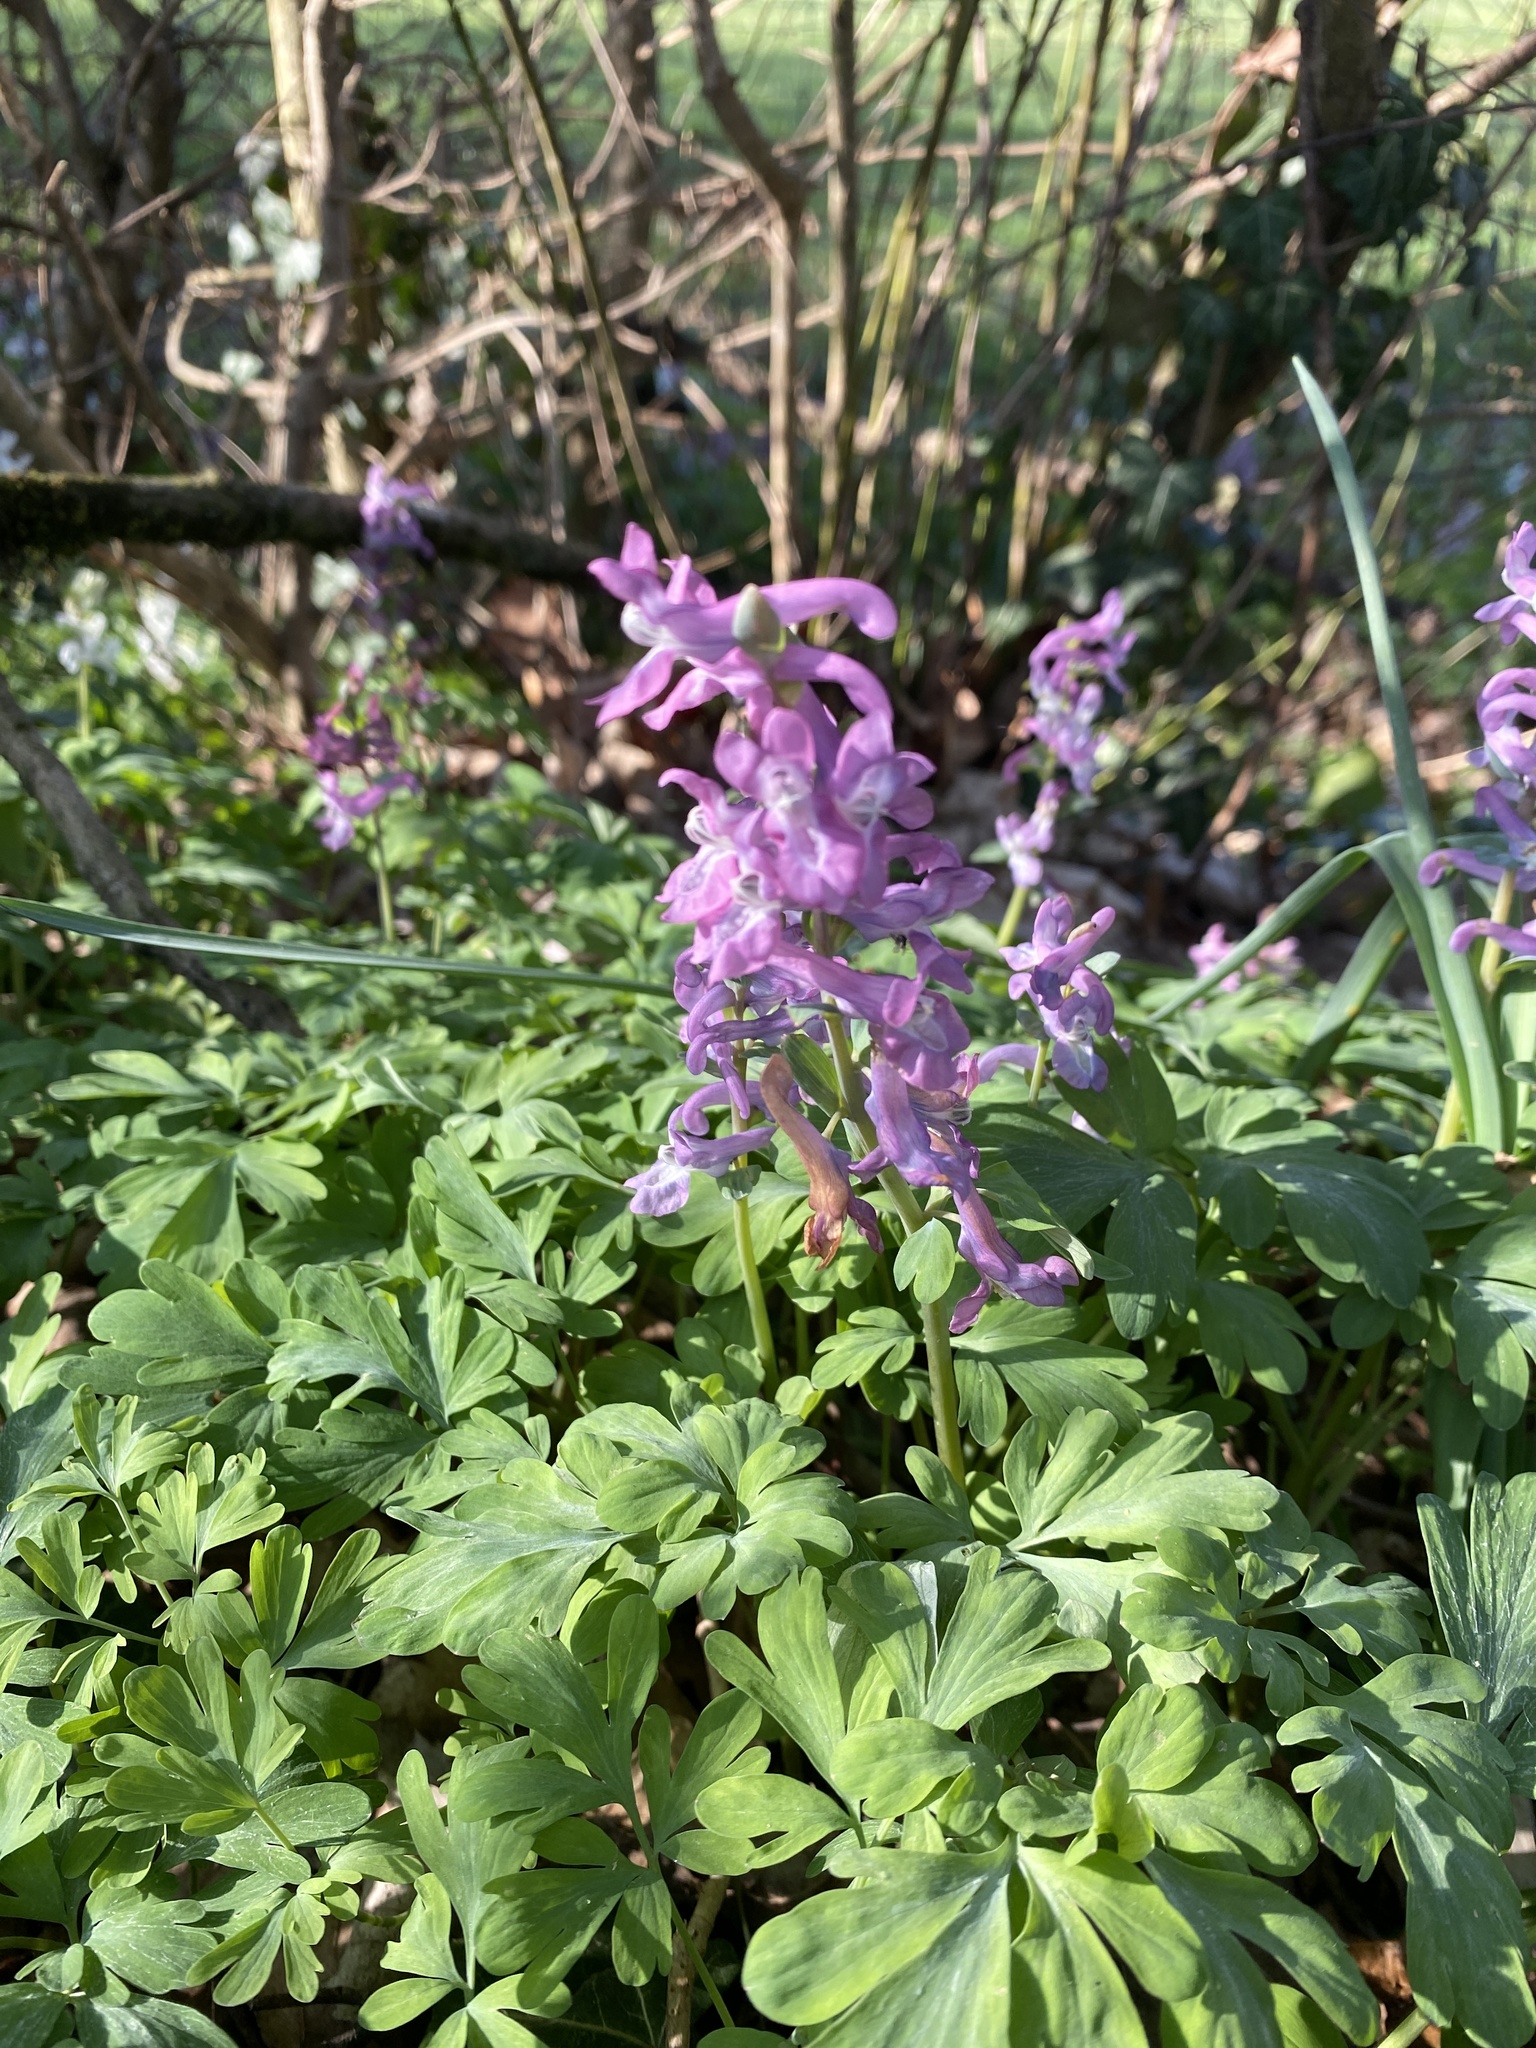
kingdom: Plantae
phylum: Tracheophyta
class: Magnoliopsida
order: Ranunculales
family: Papaveraceae
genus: Corydalis
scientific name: Corydalis cava
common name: Hollowroot
